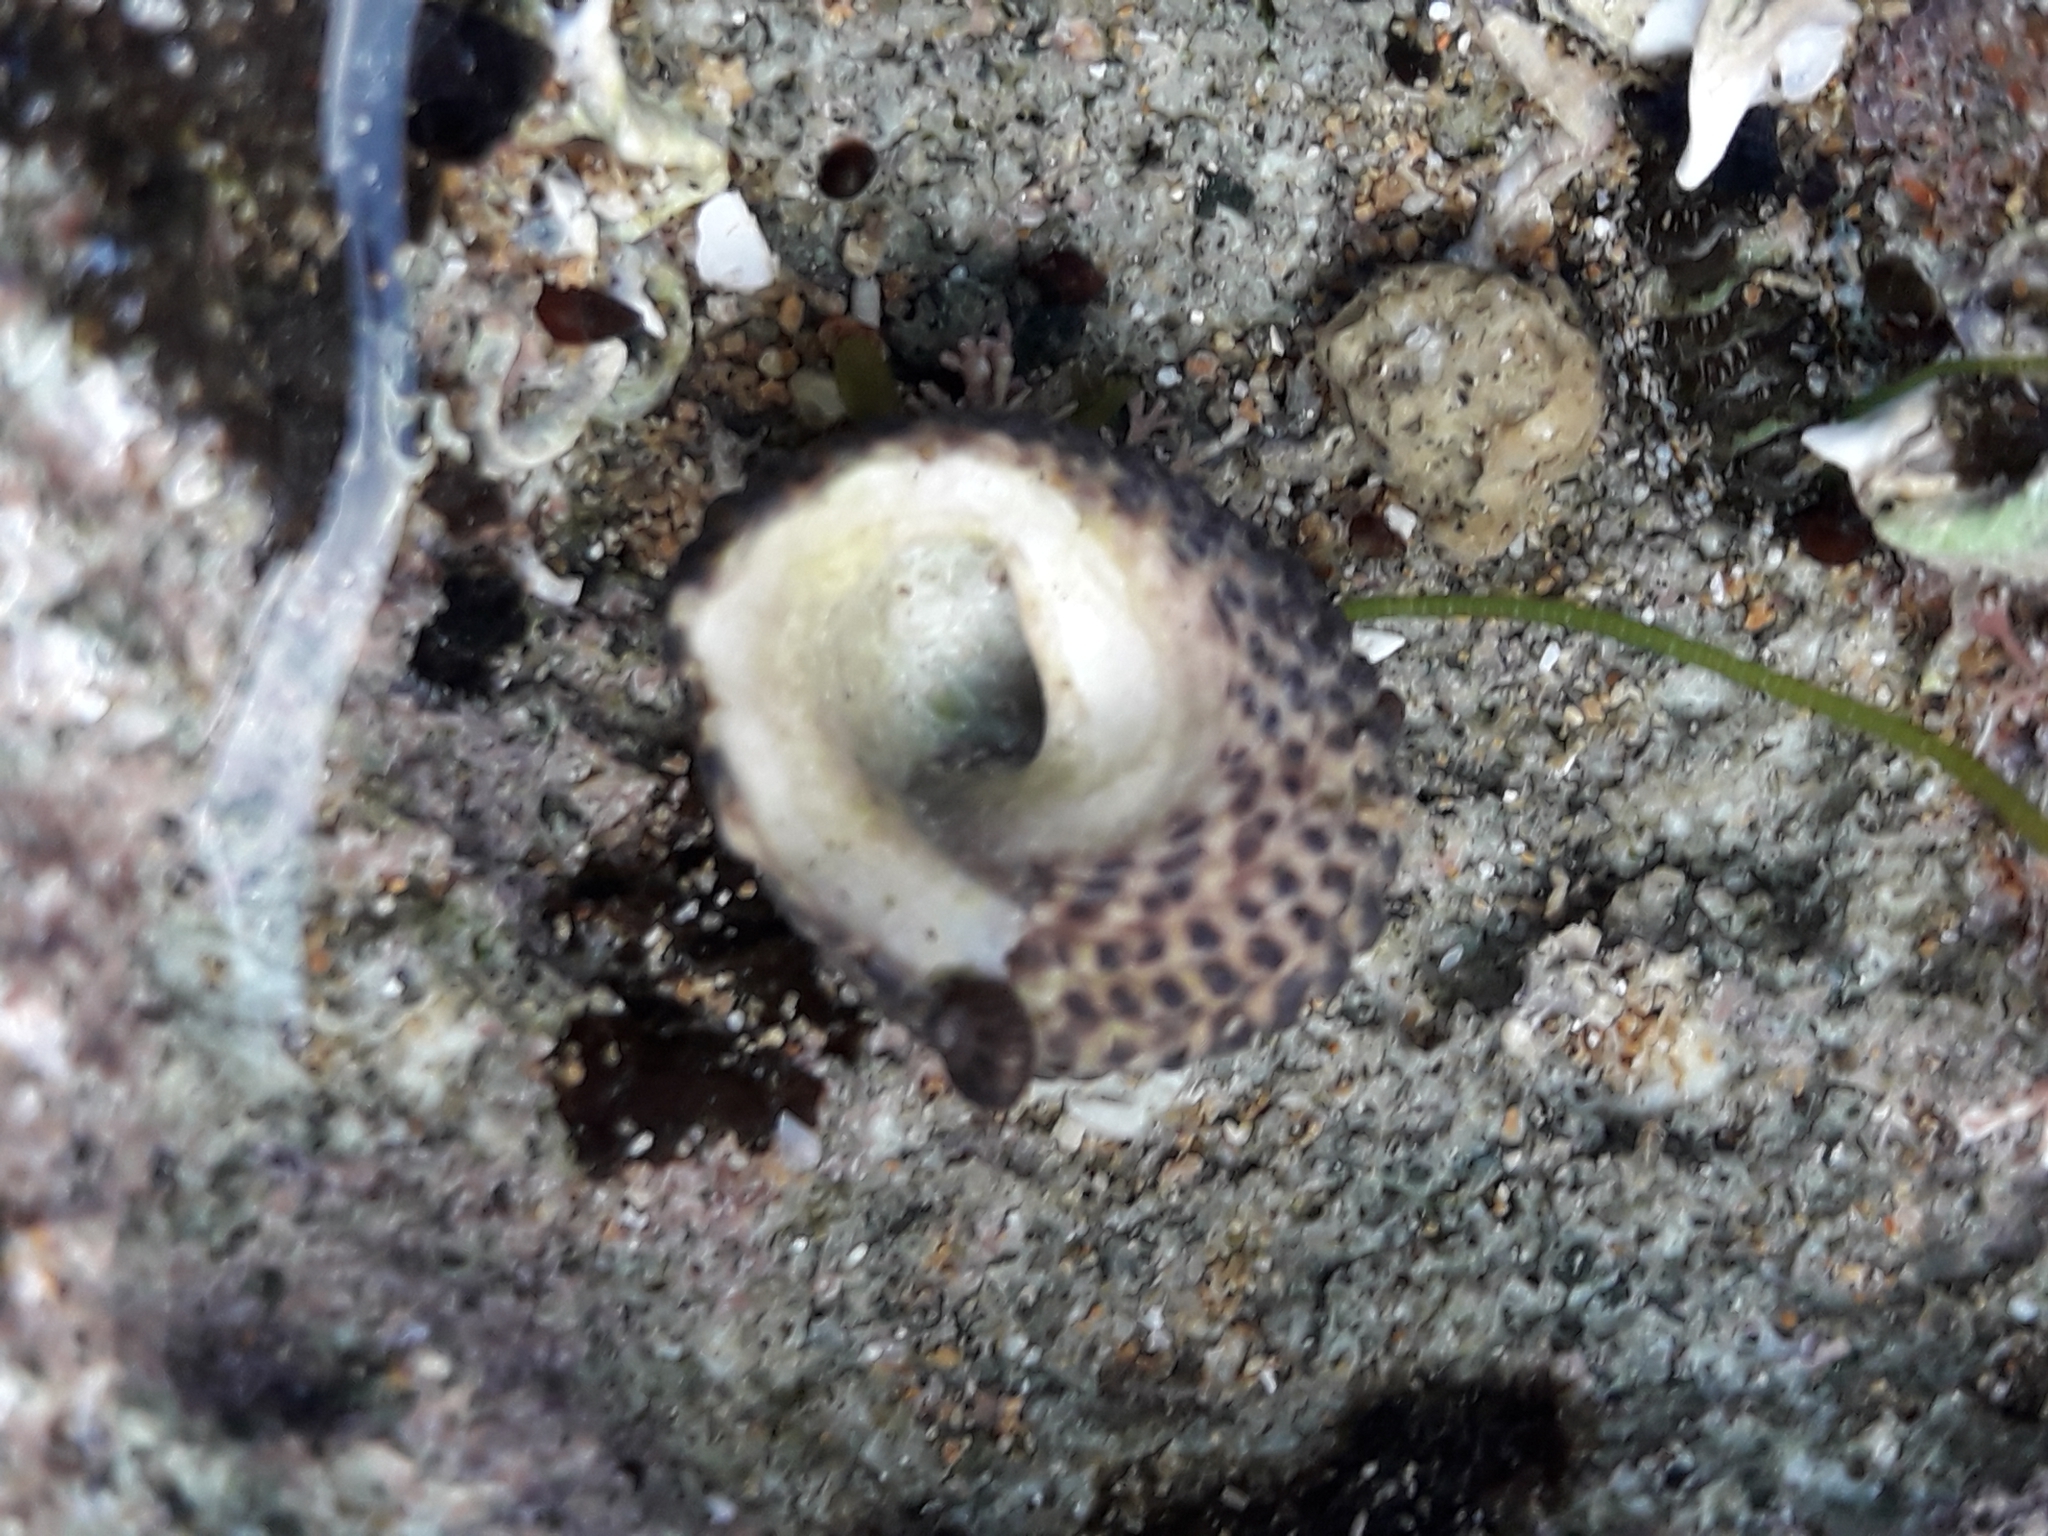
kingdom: Animalia
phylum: Mollusca
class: Gastropoda
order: Trochida
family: Trochidae
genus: Diloma
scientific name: Diloma bicanaliculatum
